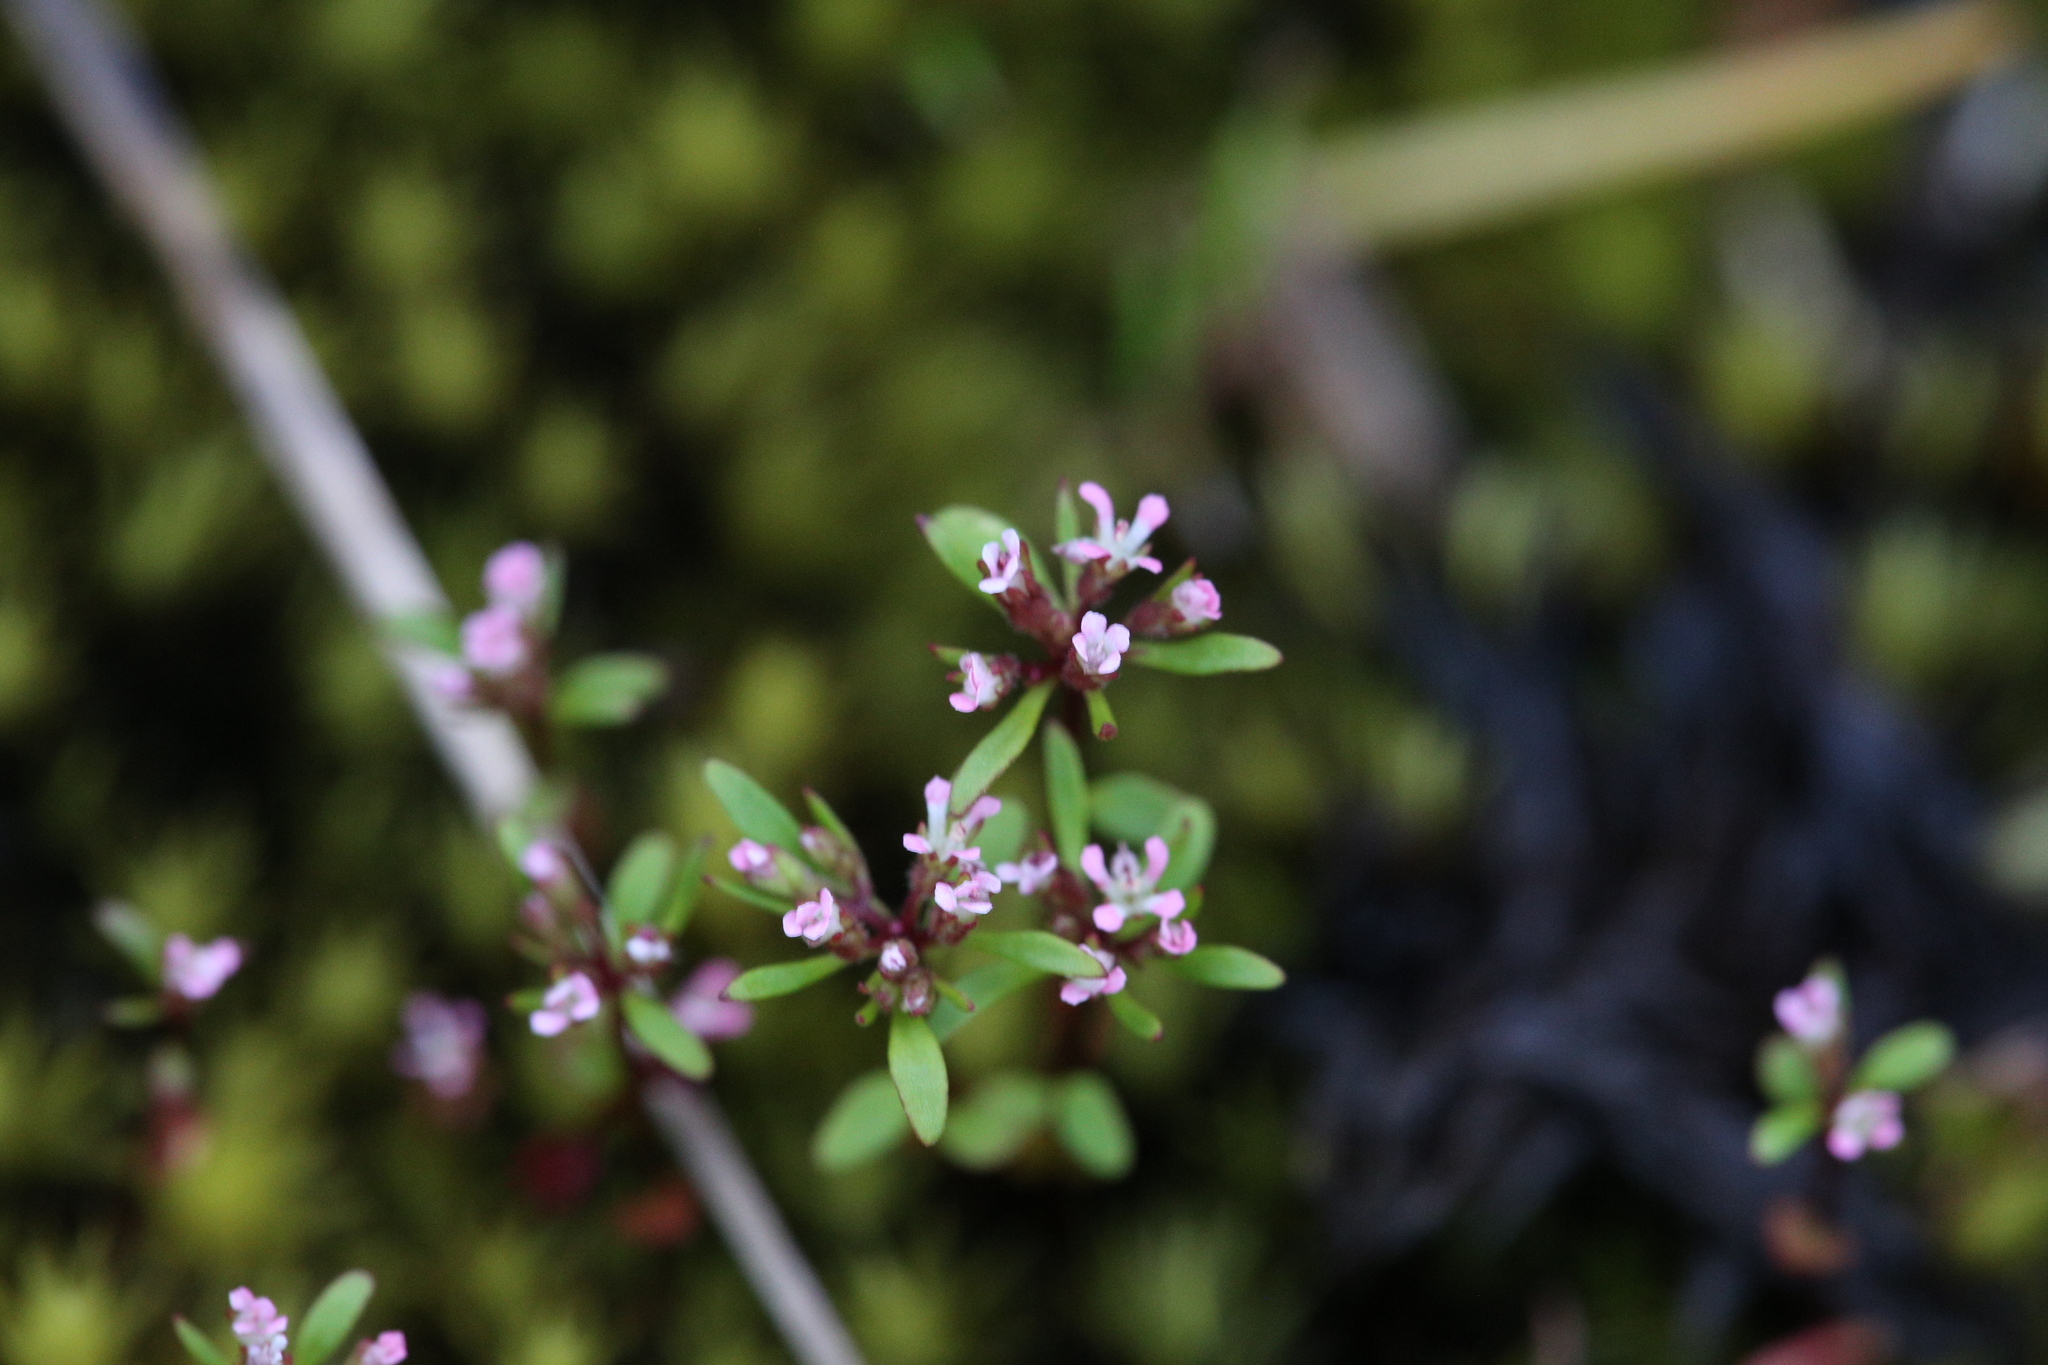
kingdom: Plantae
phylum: Tracheophyta
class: Magnoliopsida
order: Asterales
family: Stylidiaceae
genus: Levenhookia
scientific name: Levenhookia pusilla
